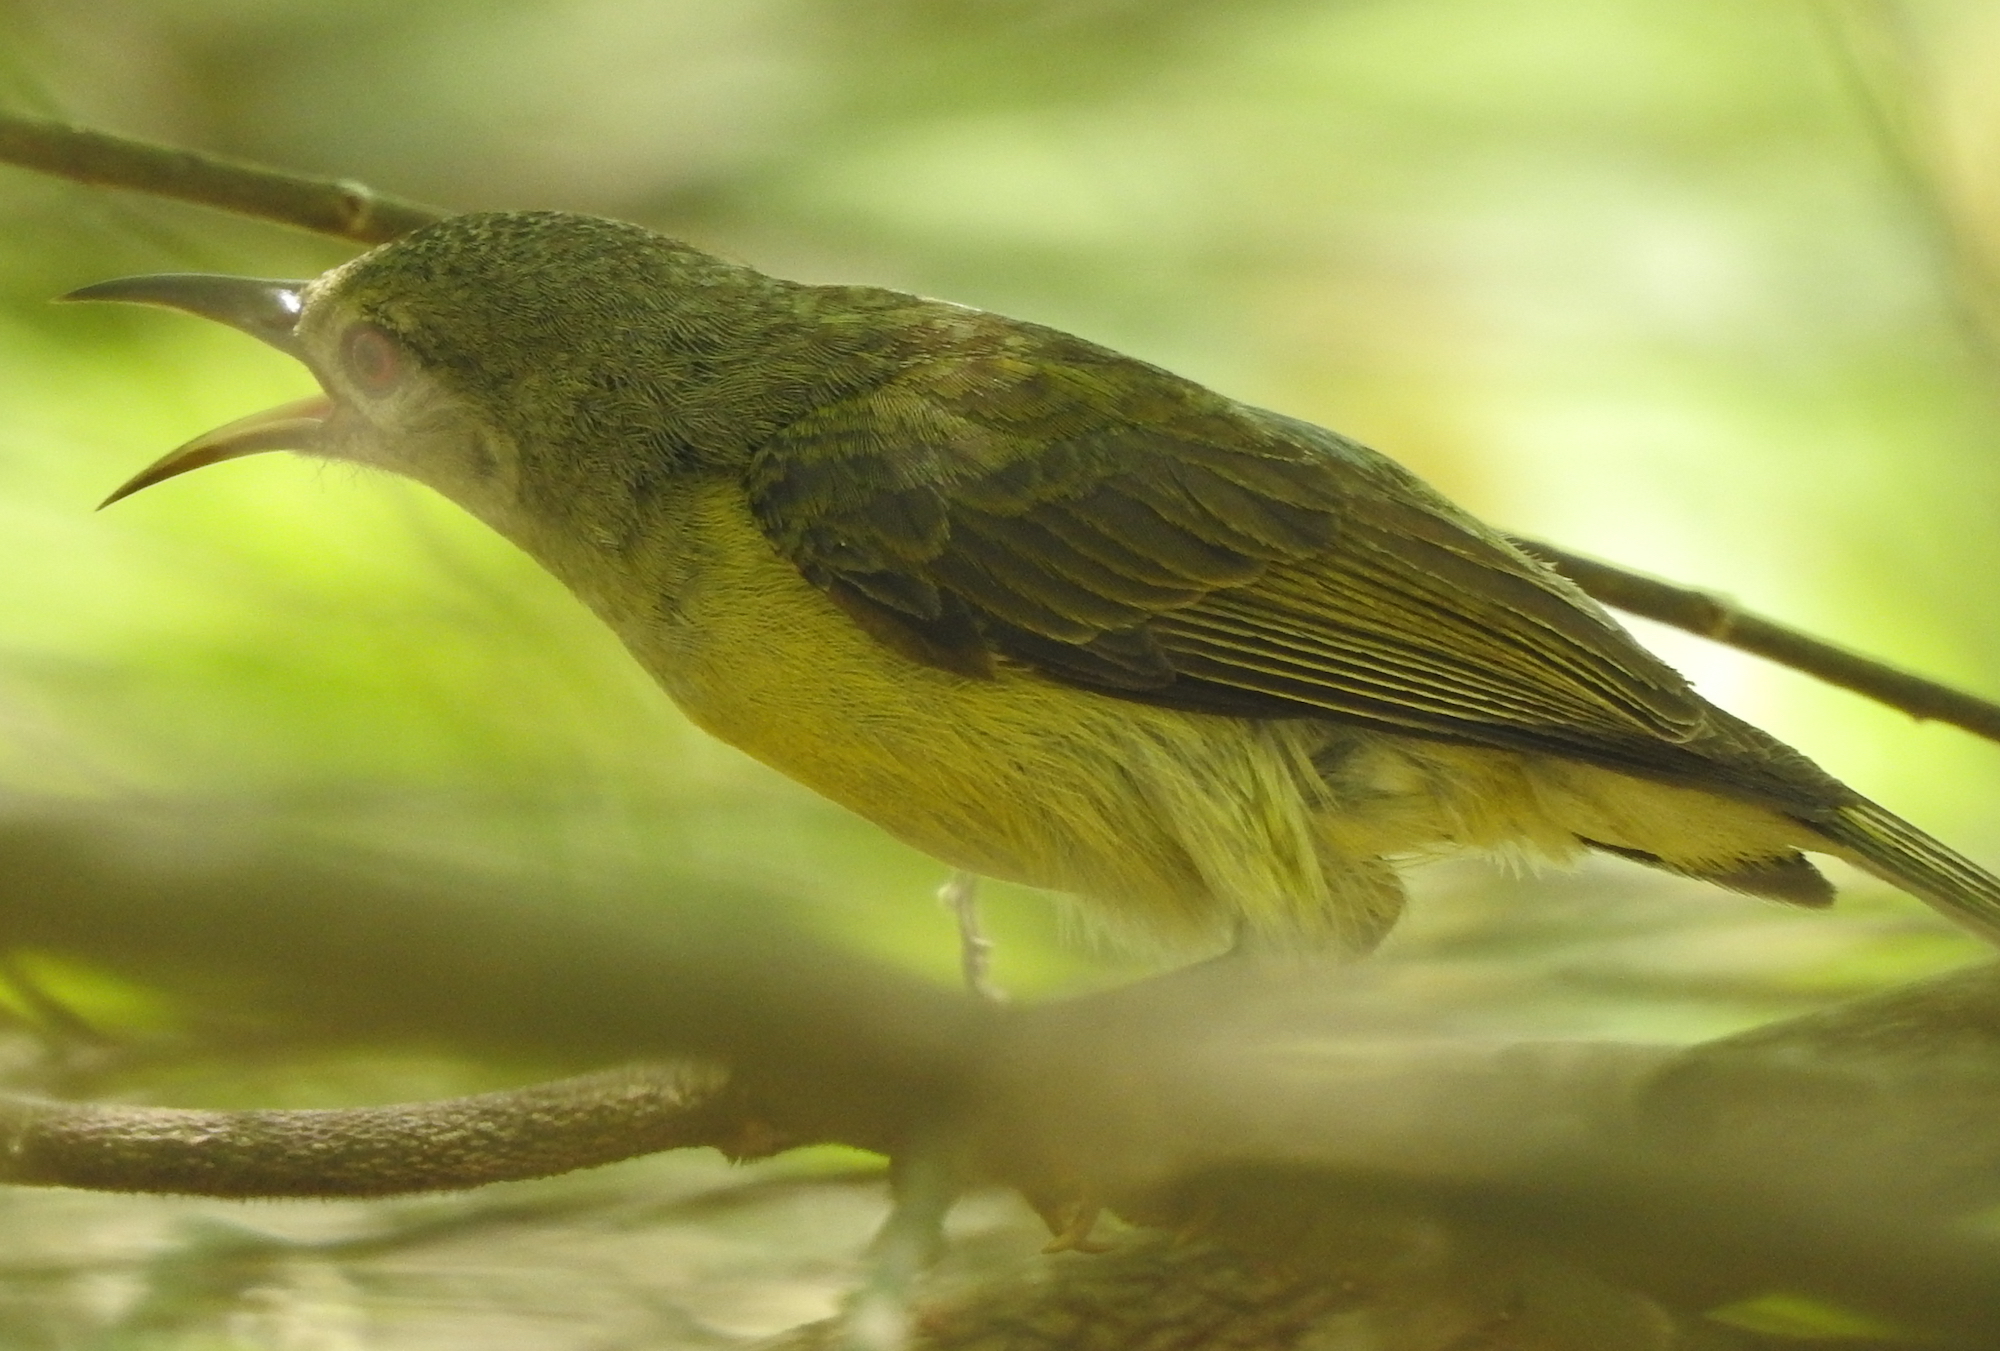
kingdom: Animalia
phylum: Chordata
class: Aves
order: Passeriformes
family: Nectariniidae
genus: Anthreptes
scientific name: Anthreptes malacensis
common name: Brown-throated sunbird
